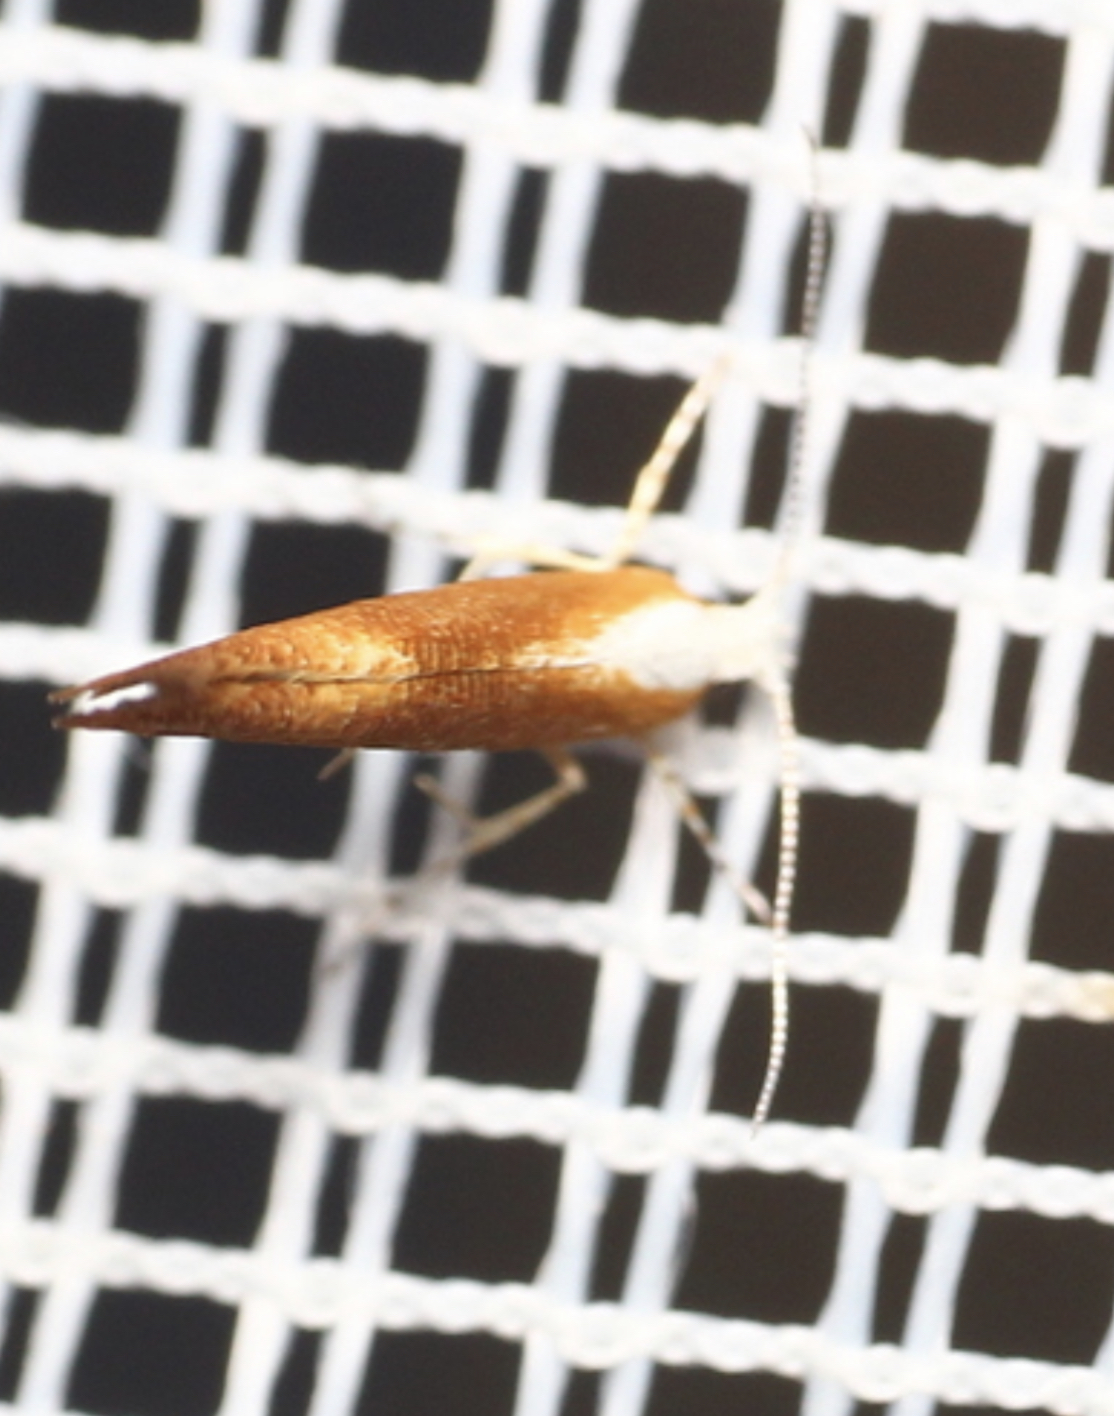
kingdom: Animalia
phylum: Arthropoda
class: Insecta
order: Lepidoptera
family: Argyresthiidae
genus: Argyresthia
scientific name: Argyresthia albistria
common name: Purple argent
